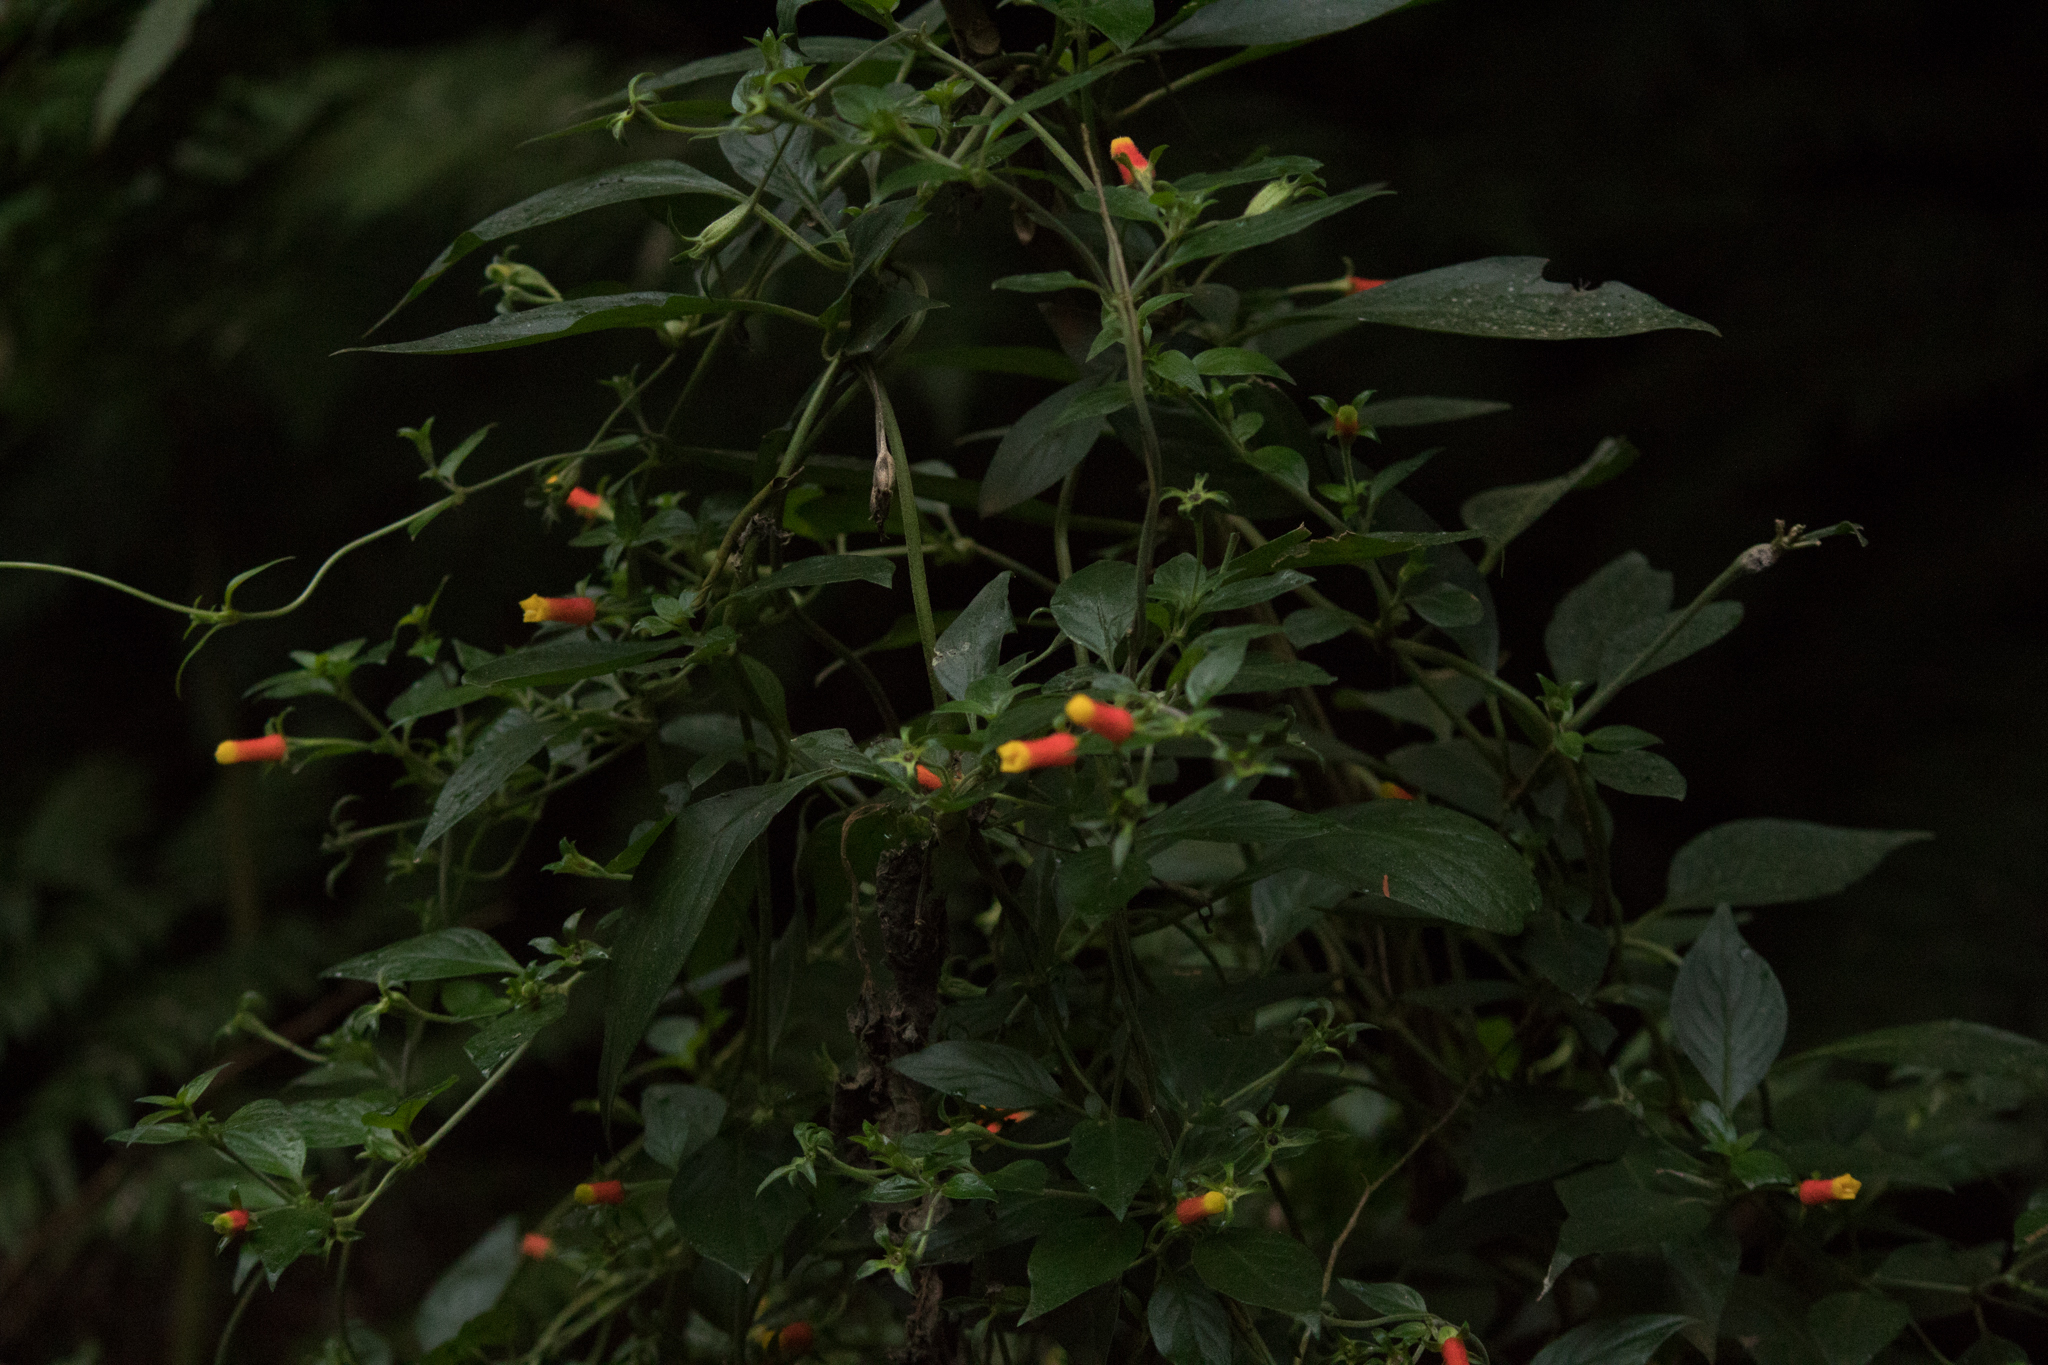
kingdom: Plantae
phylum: Tracheophyta
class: Magnoliopsida
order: Gentianales
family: Rubiaceae
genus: Manettia
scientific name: Manettia luteorubra
